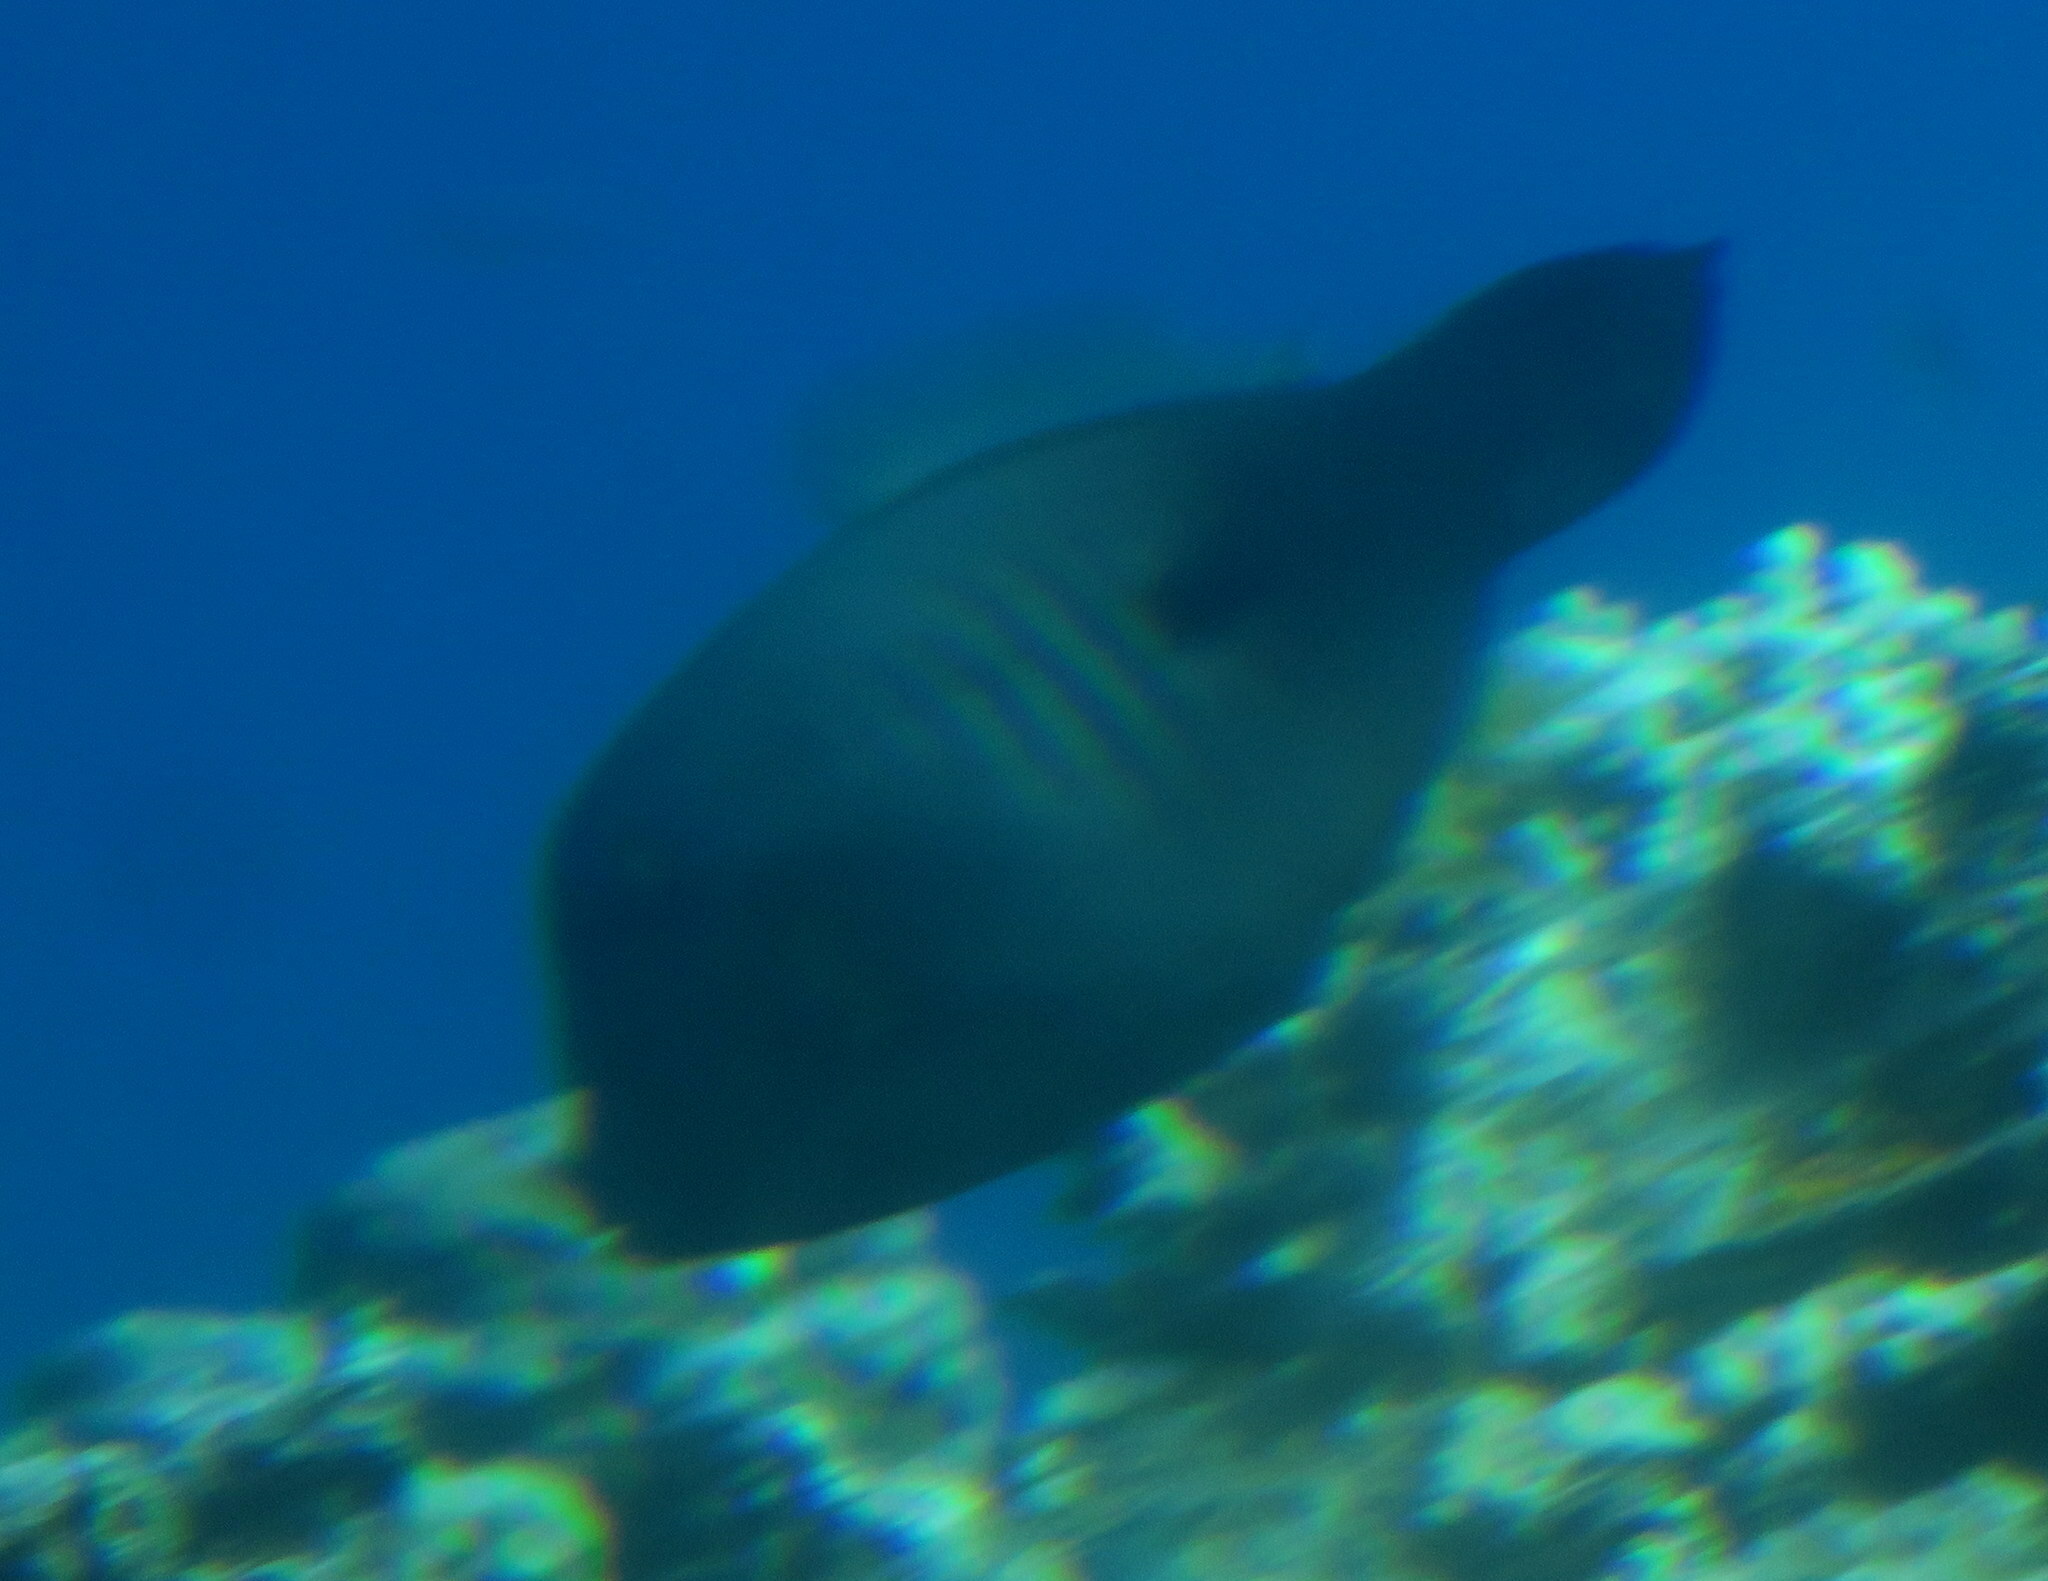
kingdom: Animalia
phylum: Chordata
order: Tetraodontiformes
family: Monacanthidae
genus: Amanses
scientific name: Amanses scopas
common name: Broom filefish
